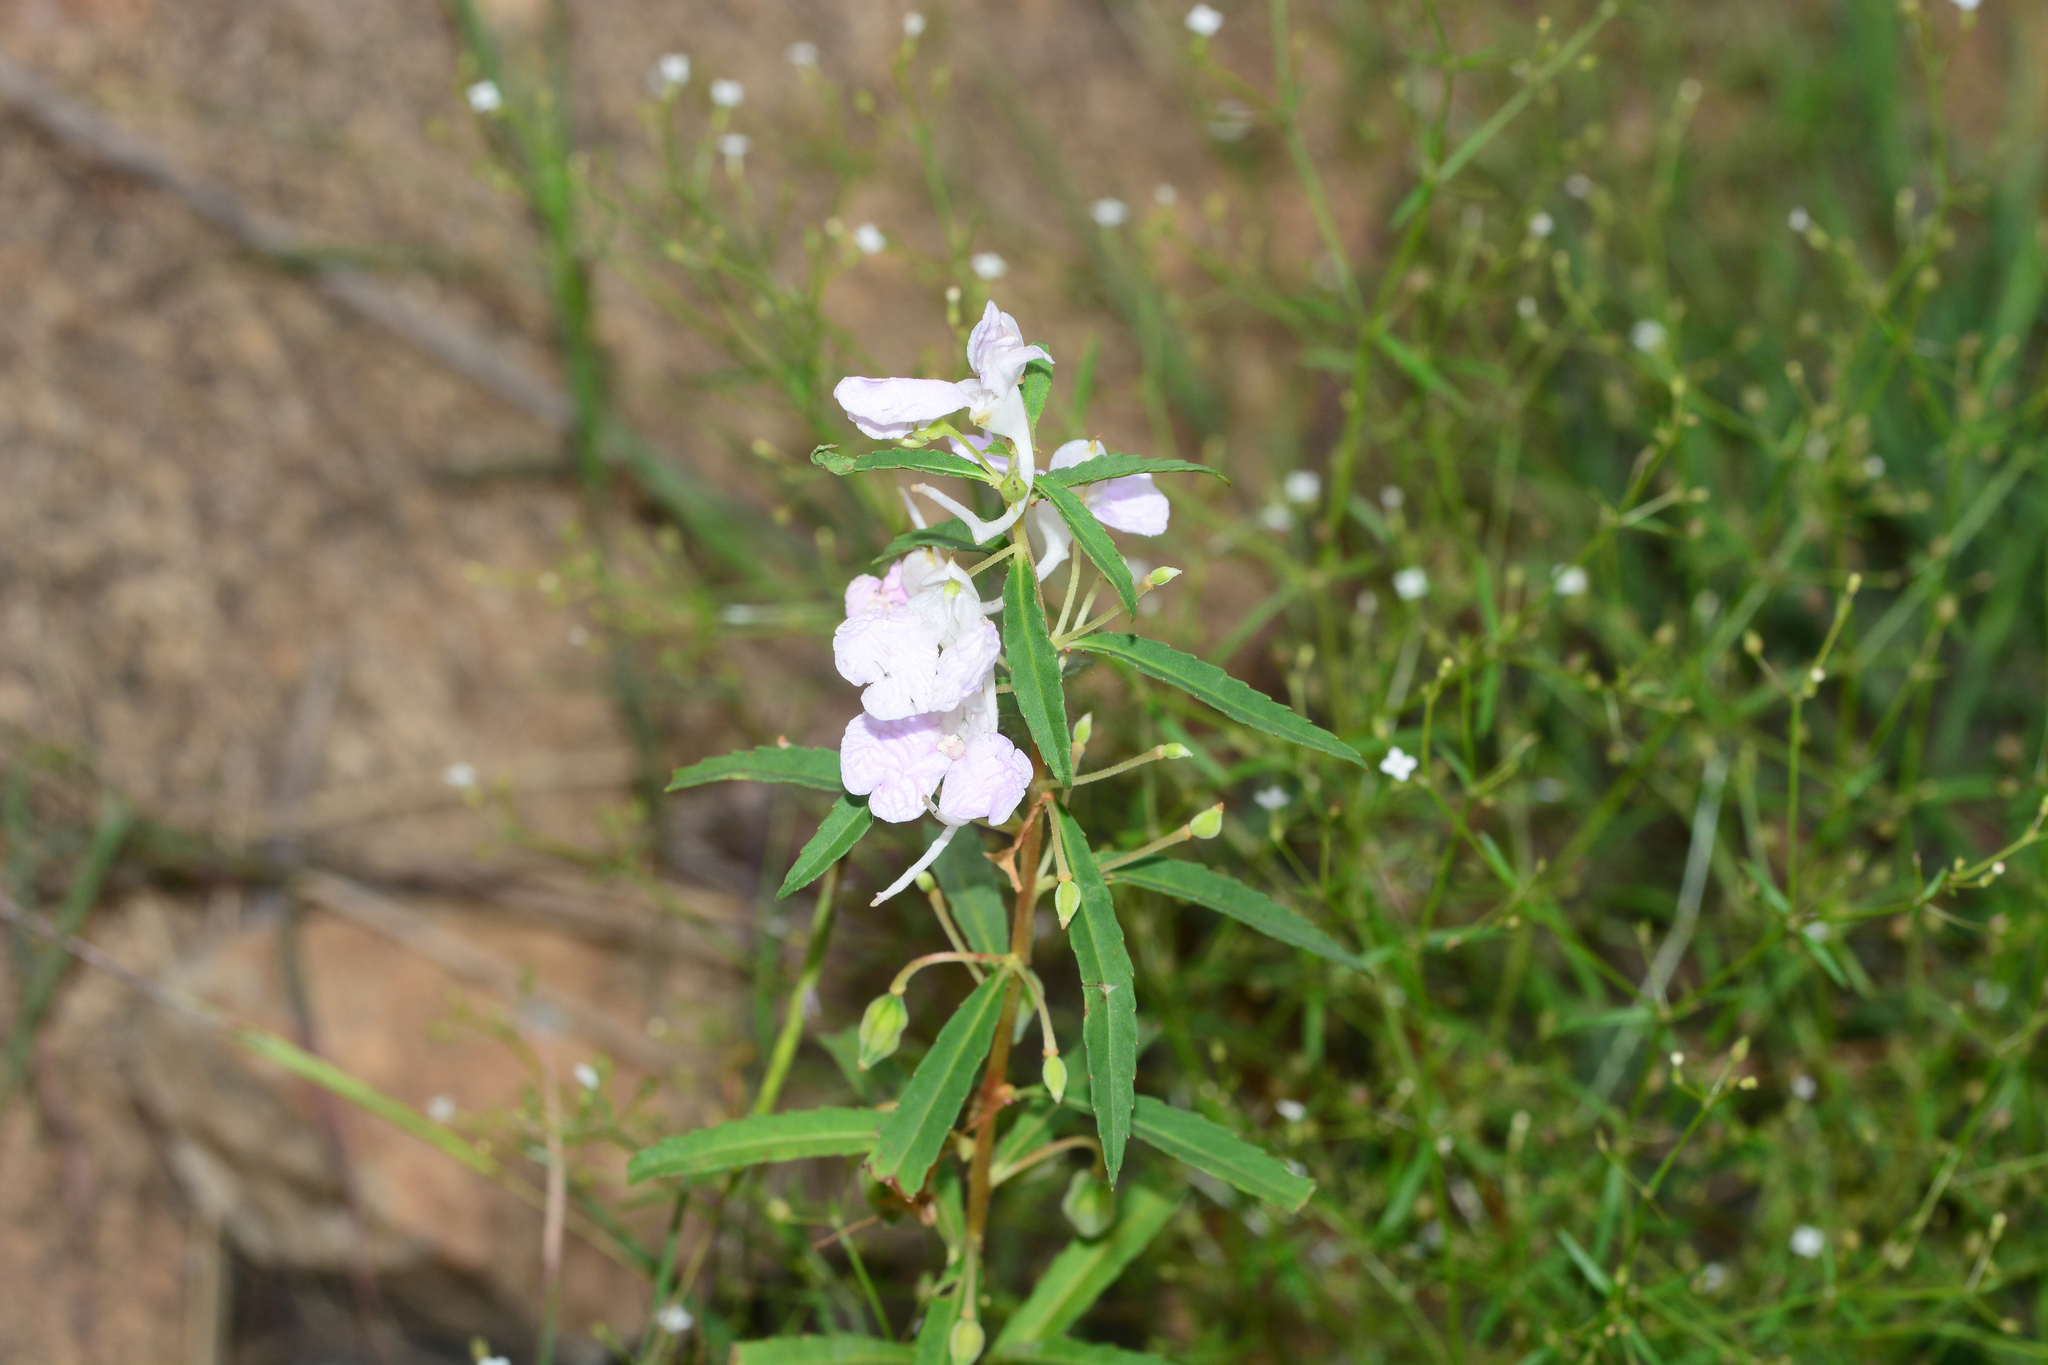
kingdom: Plantae
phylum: Tracheophyta
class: Magnoliopsida
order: Ericales
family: Balsaminaceae
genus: Impatiens
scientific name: Impatiens balsamina
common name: Balsam
